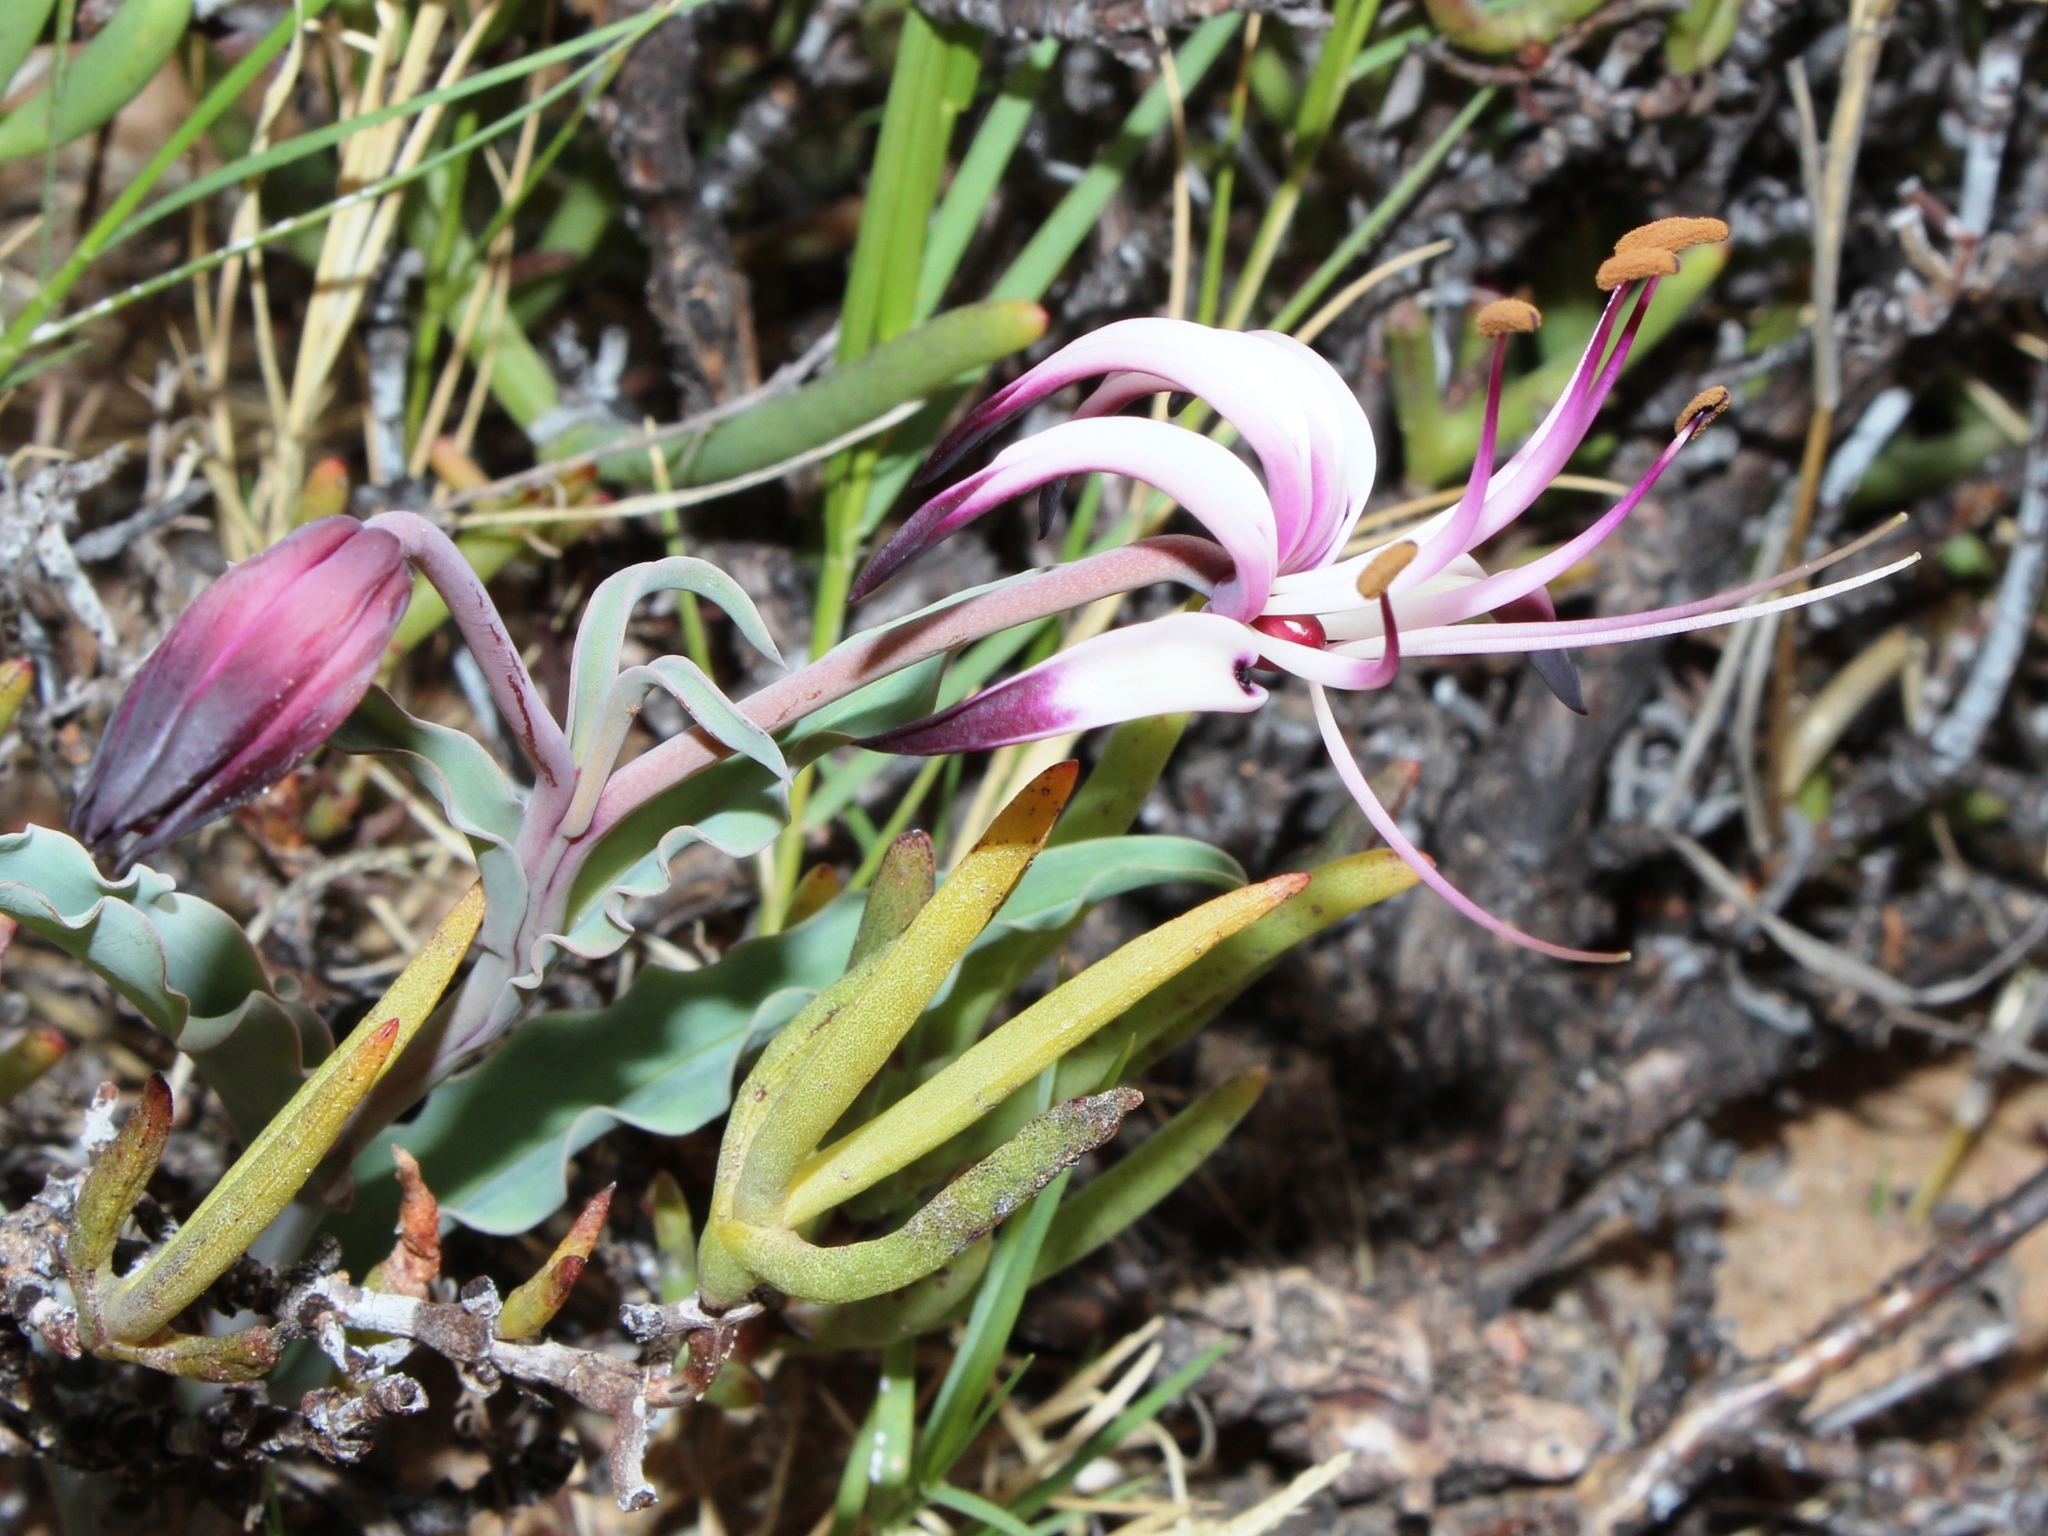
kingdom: Plantae
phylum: Tracheophyta
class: Liliopsida
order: Liliales
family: Colchicaceae
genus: Ornithoglossum
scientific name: Ornithoglossum undulatum
